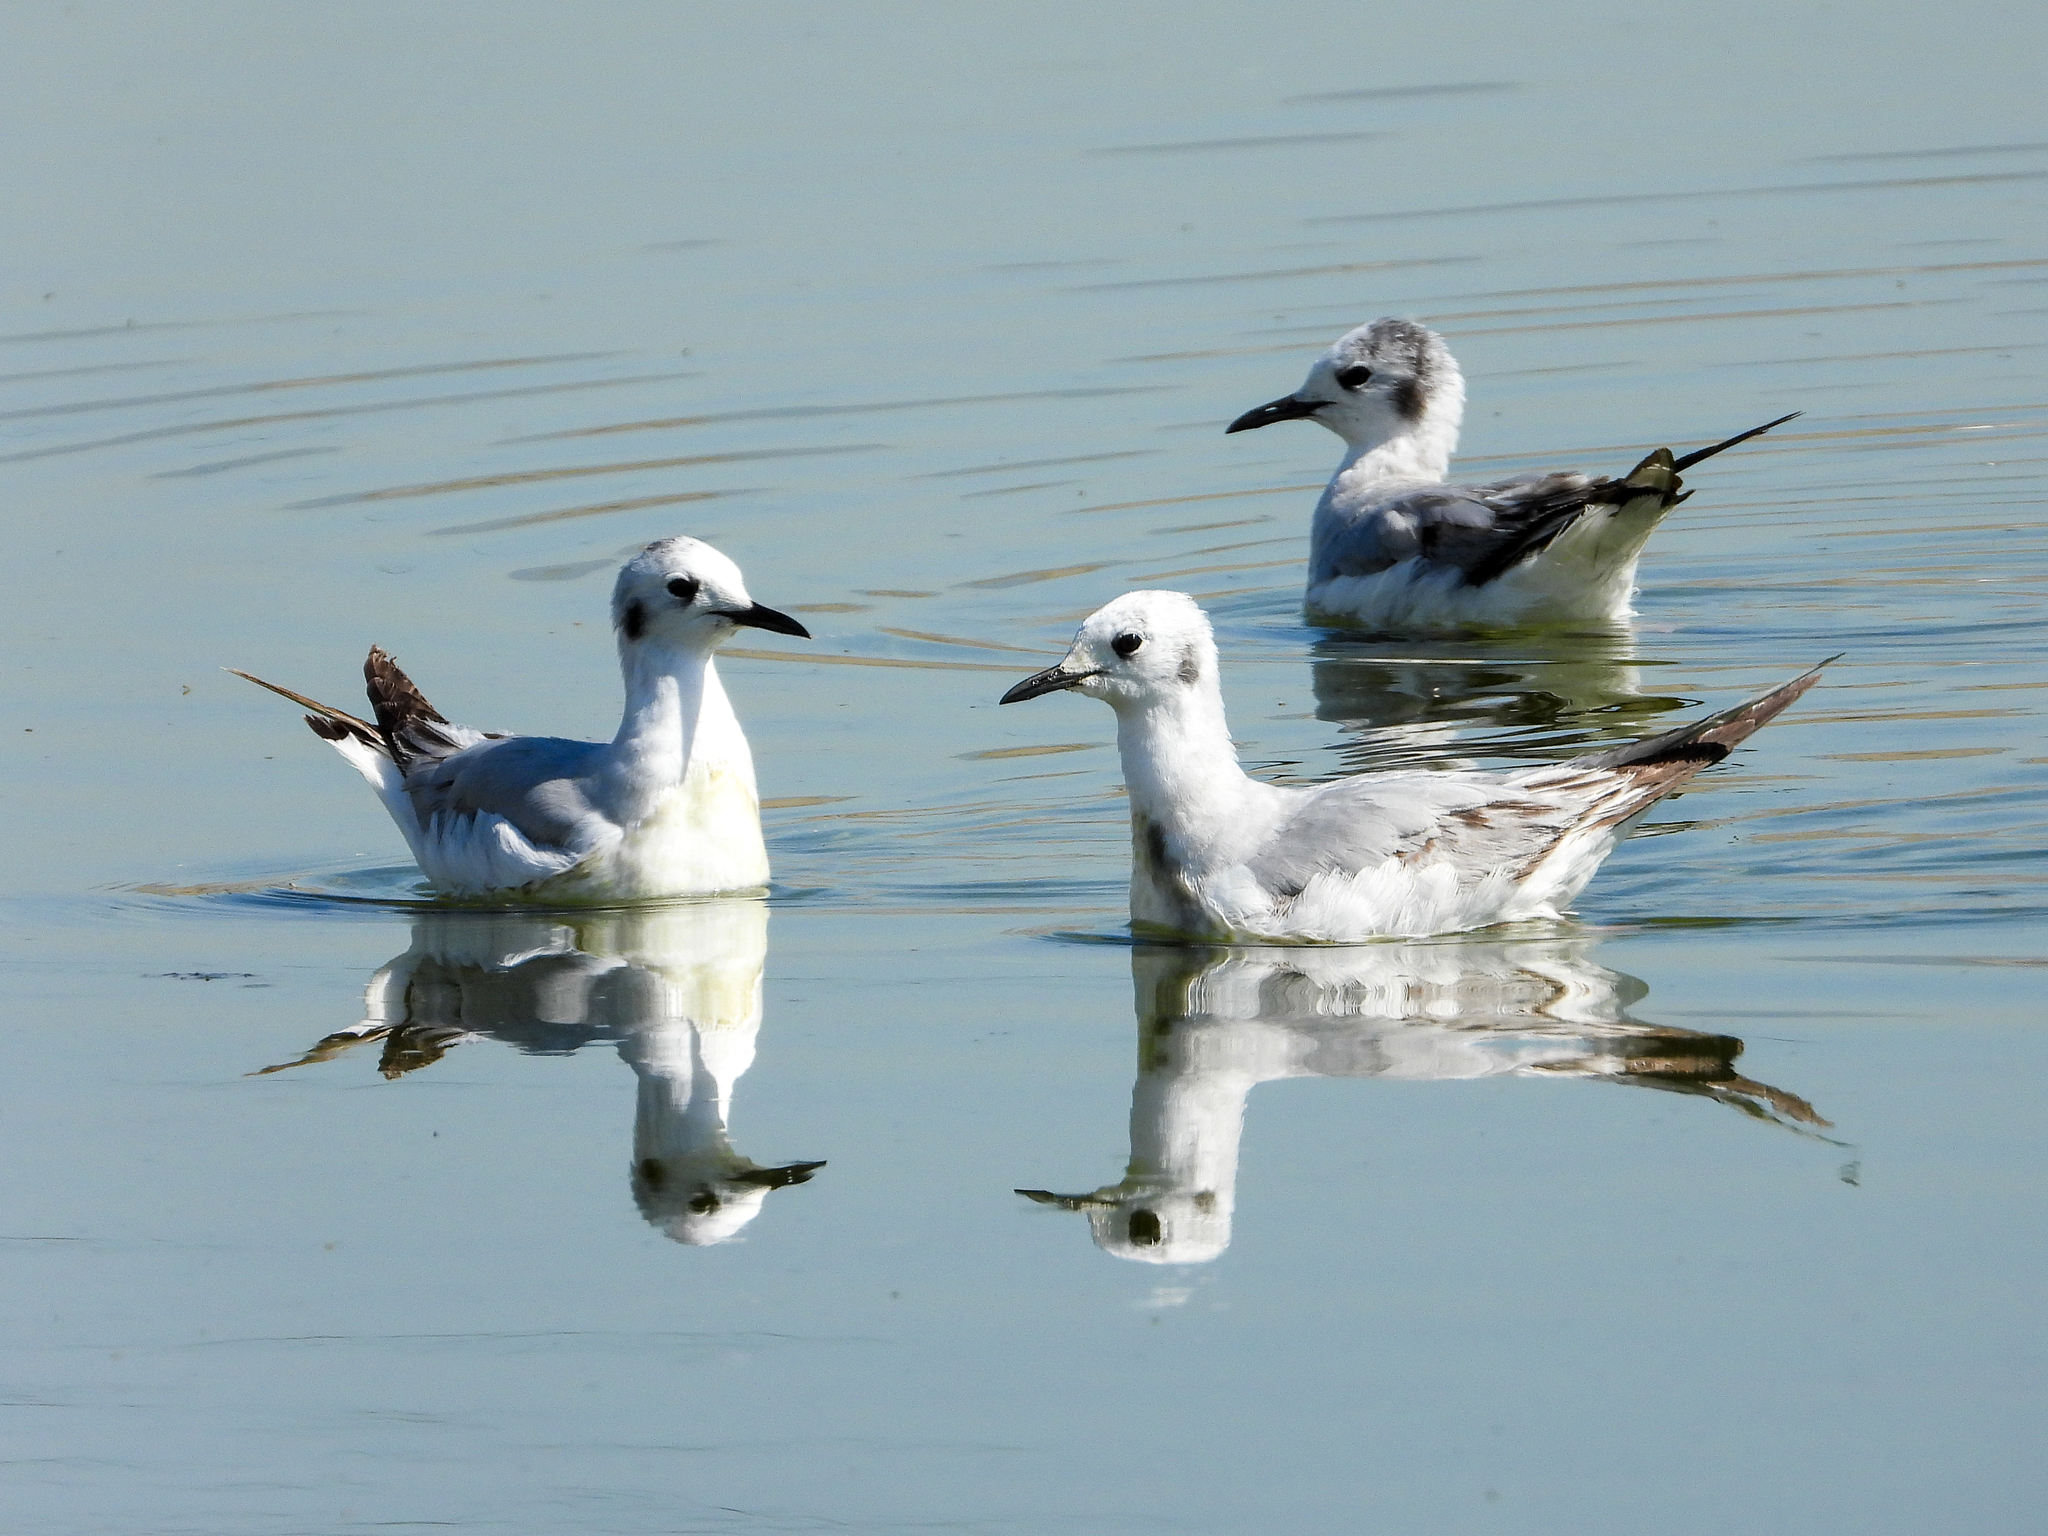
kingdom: Animalia
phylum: Chordata
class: Aves
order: Charadriiformes
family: Laridae
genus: Chroicocephalus
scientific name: Chroicocephalus philadelphia
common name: Bonaparte's gull
